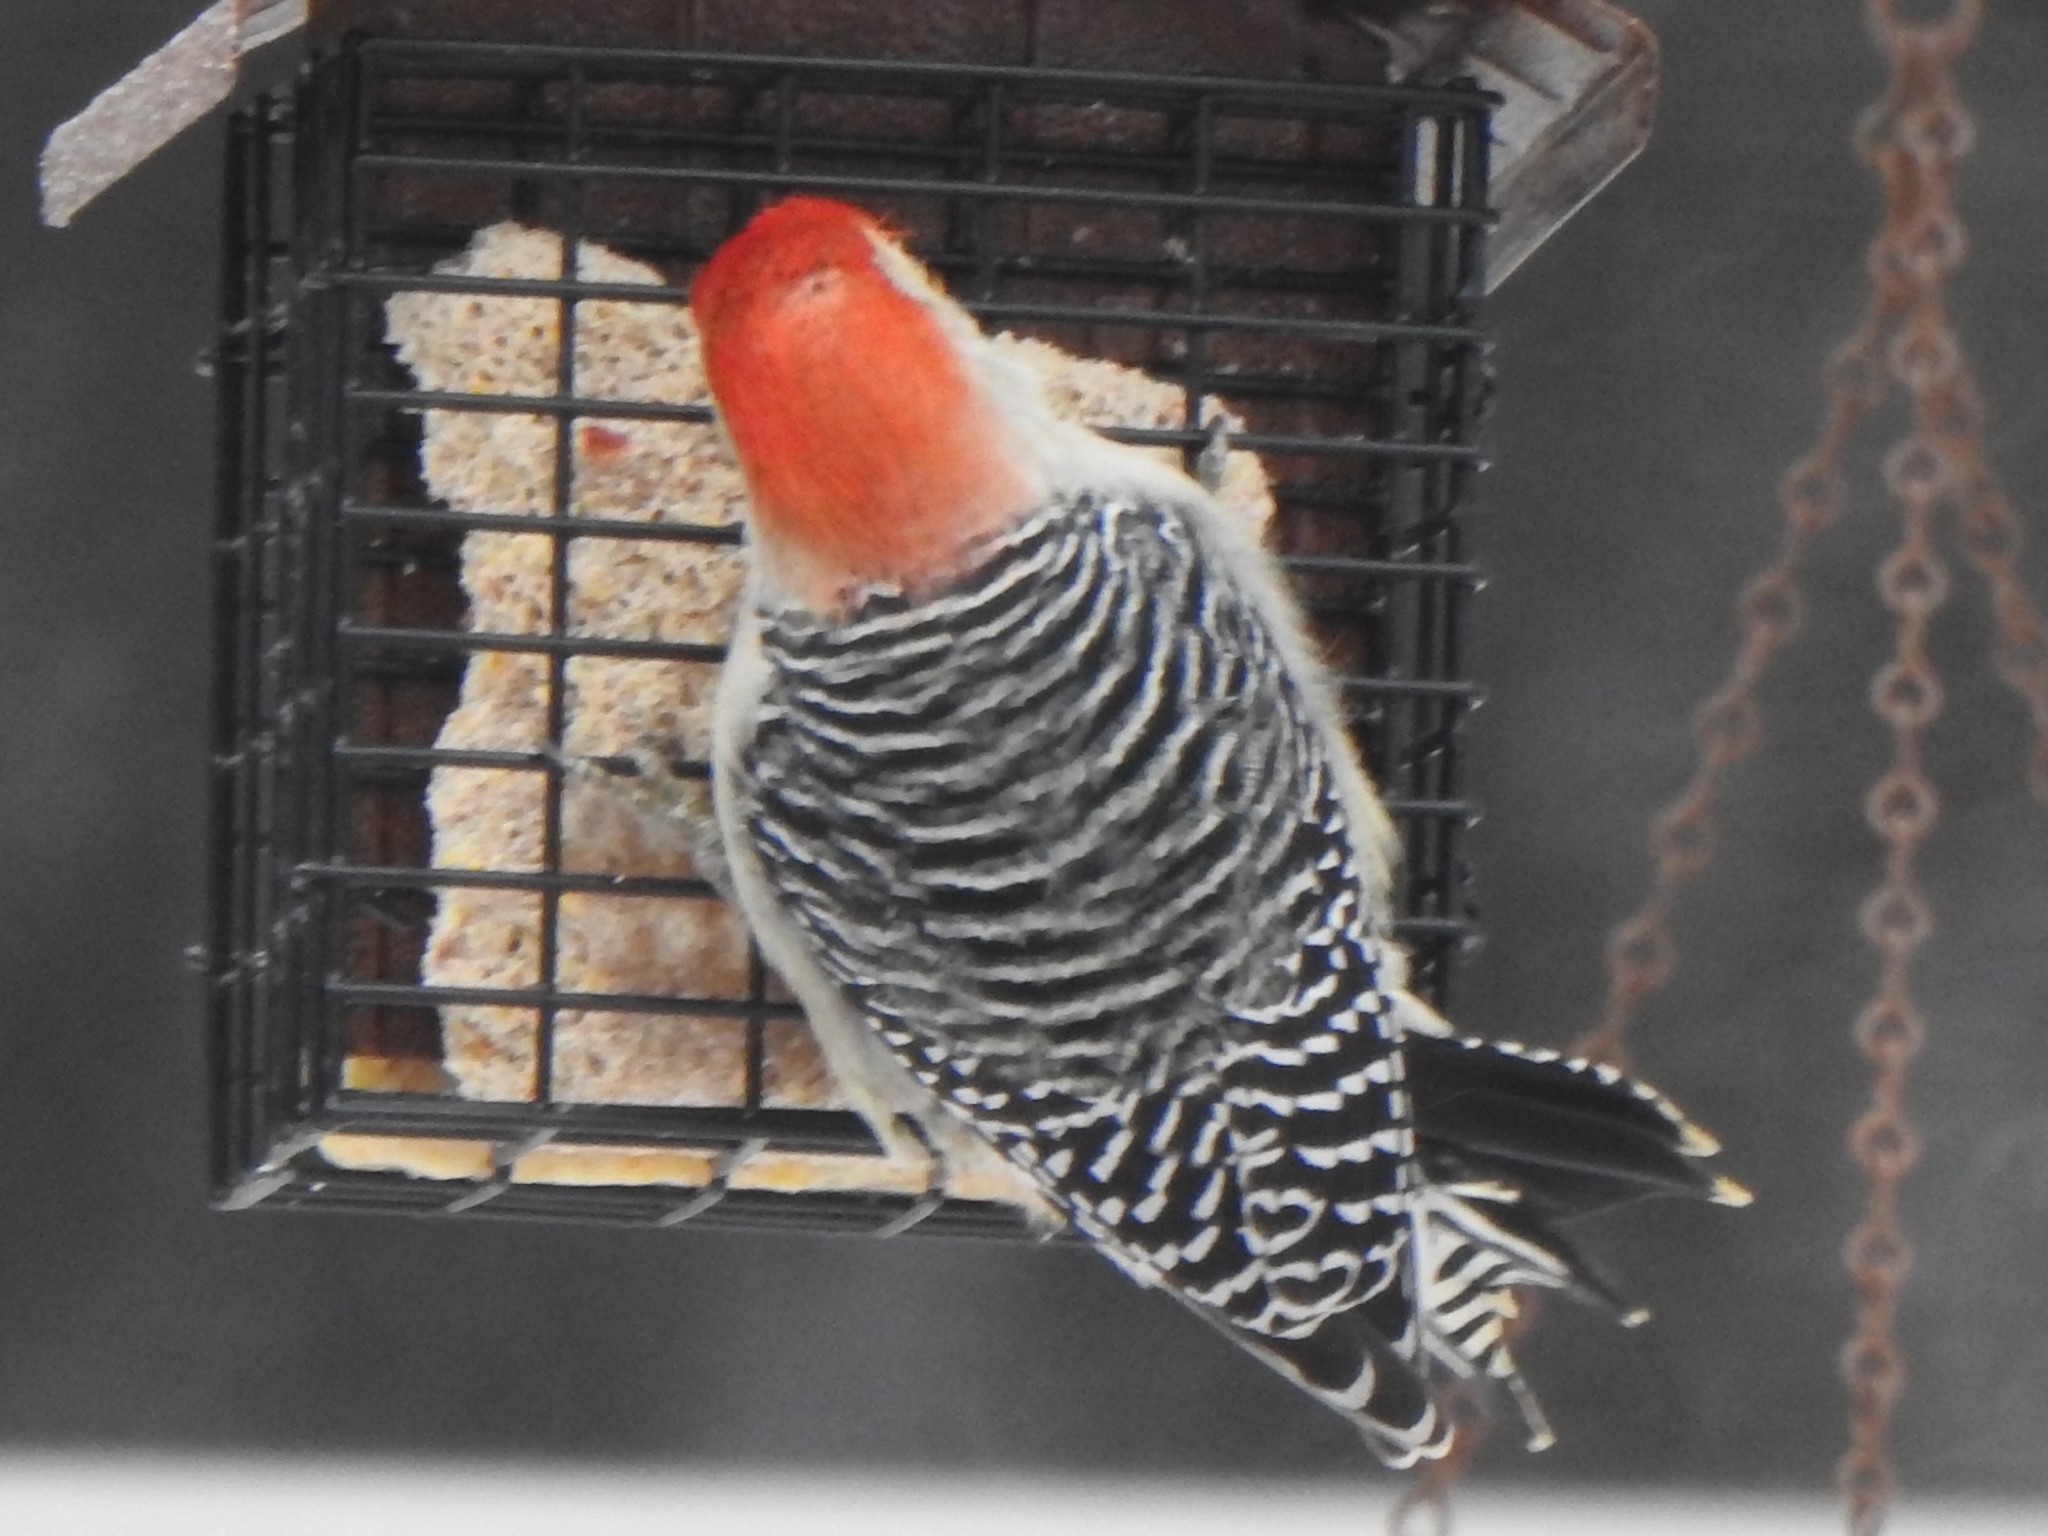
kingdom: Animalia
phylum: Chordata
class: Aves
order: Piciformes
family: Picidae
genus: Melanerpes
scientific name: Melanerpes carolinus
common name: Red-bellied woodpecker
